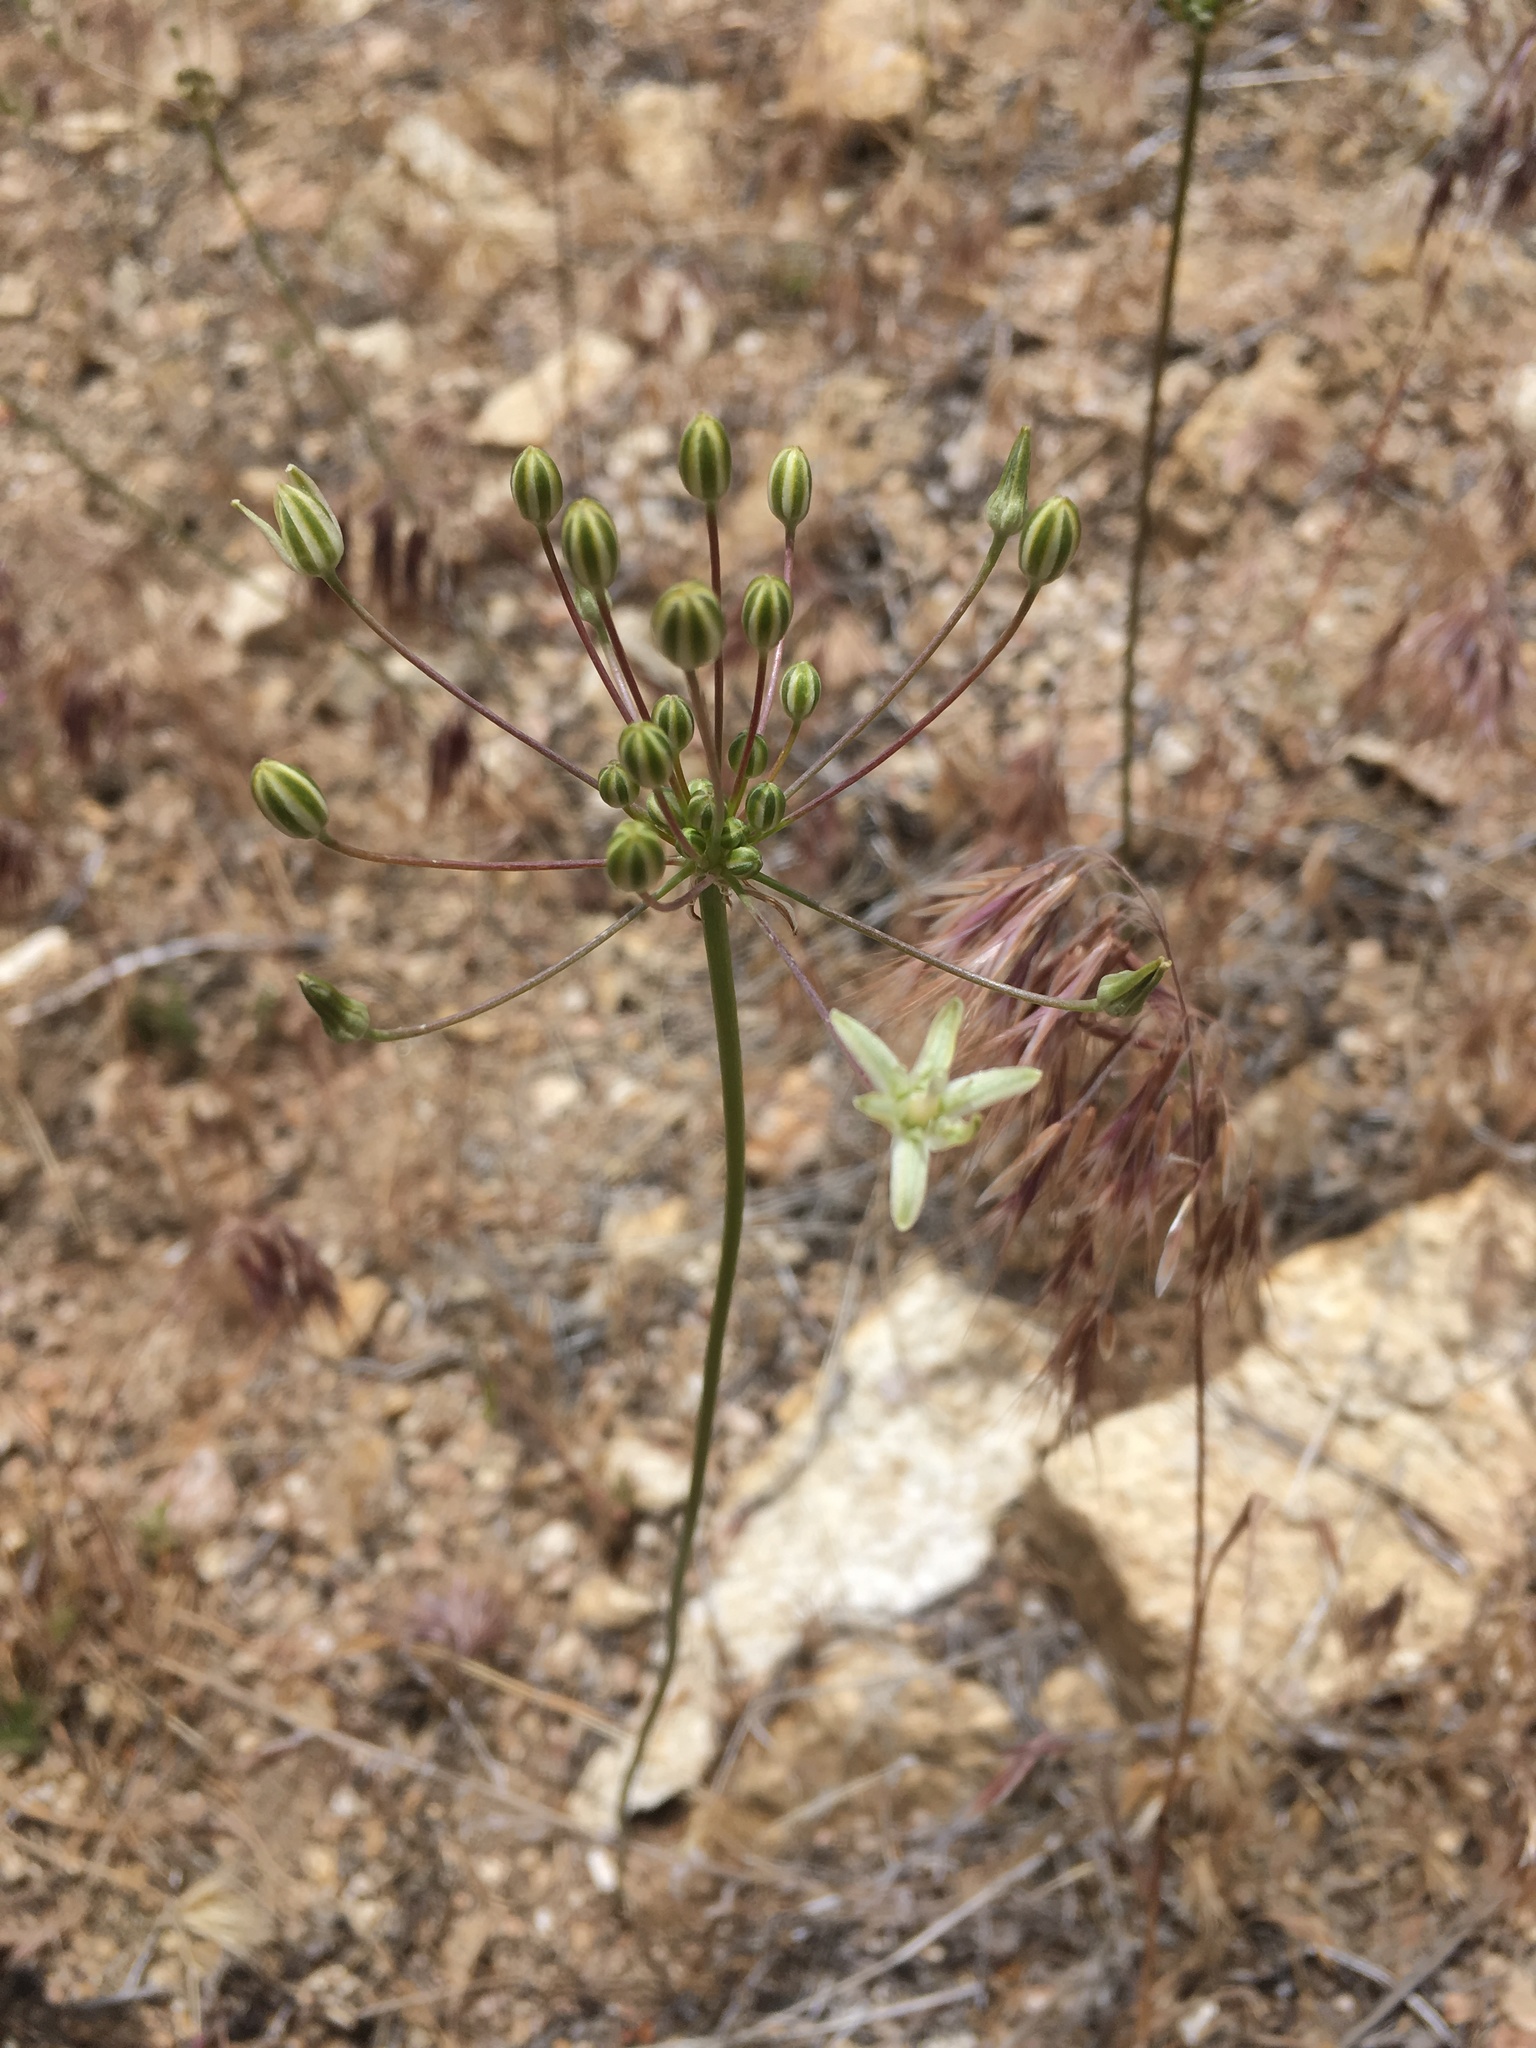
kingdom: Plantae
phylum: Tracheophyta
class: Liliopsida
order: Asparagales
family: Asparagaceae
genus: Muilla
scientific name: Muilla maritima
